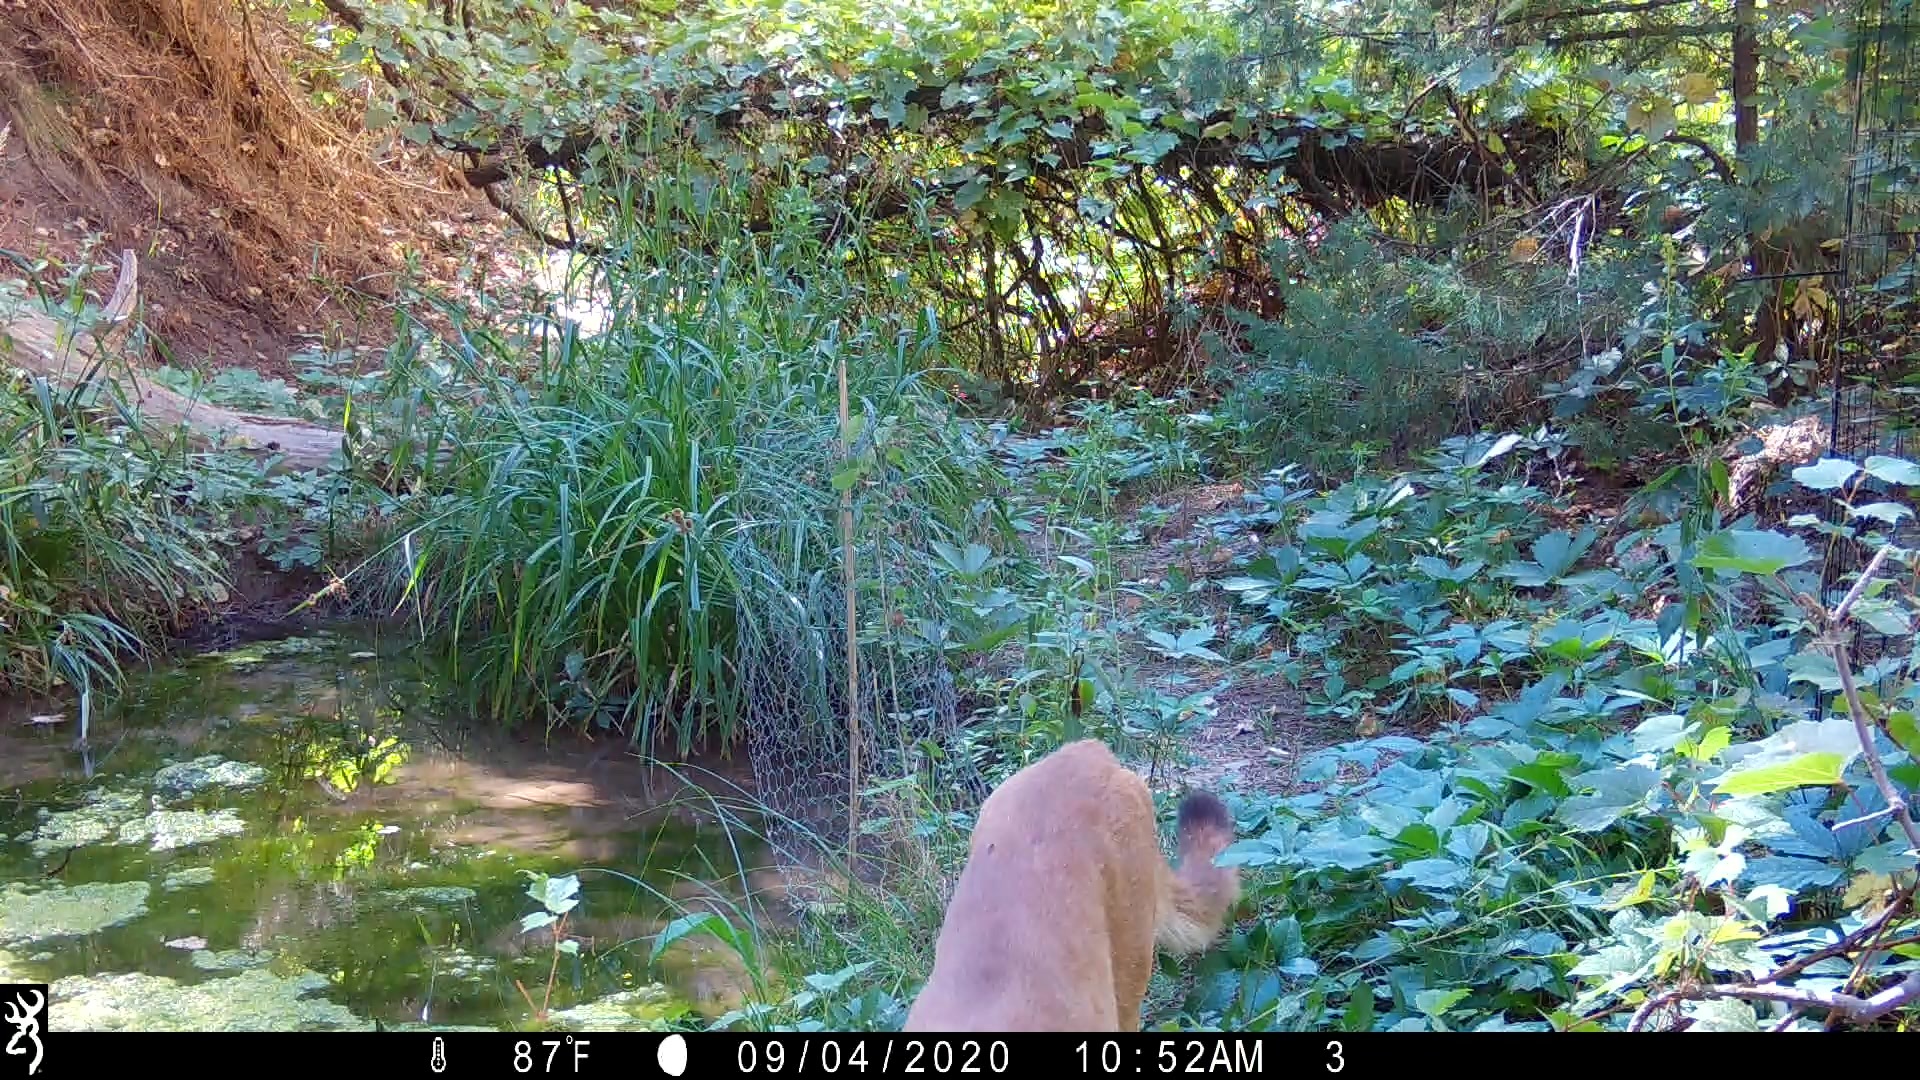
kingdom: Animalia
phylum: Chordata
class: Mammalia
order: Carnivora
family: Felidae
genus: Puma
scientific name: Puma concolor
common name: Puma
